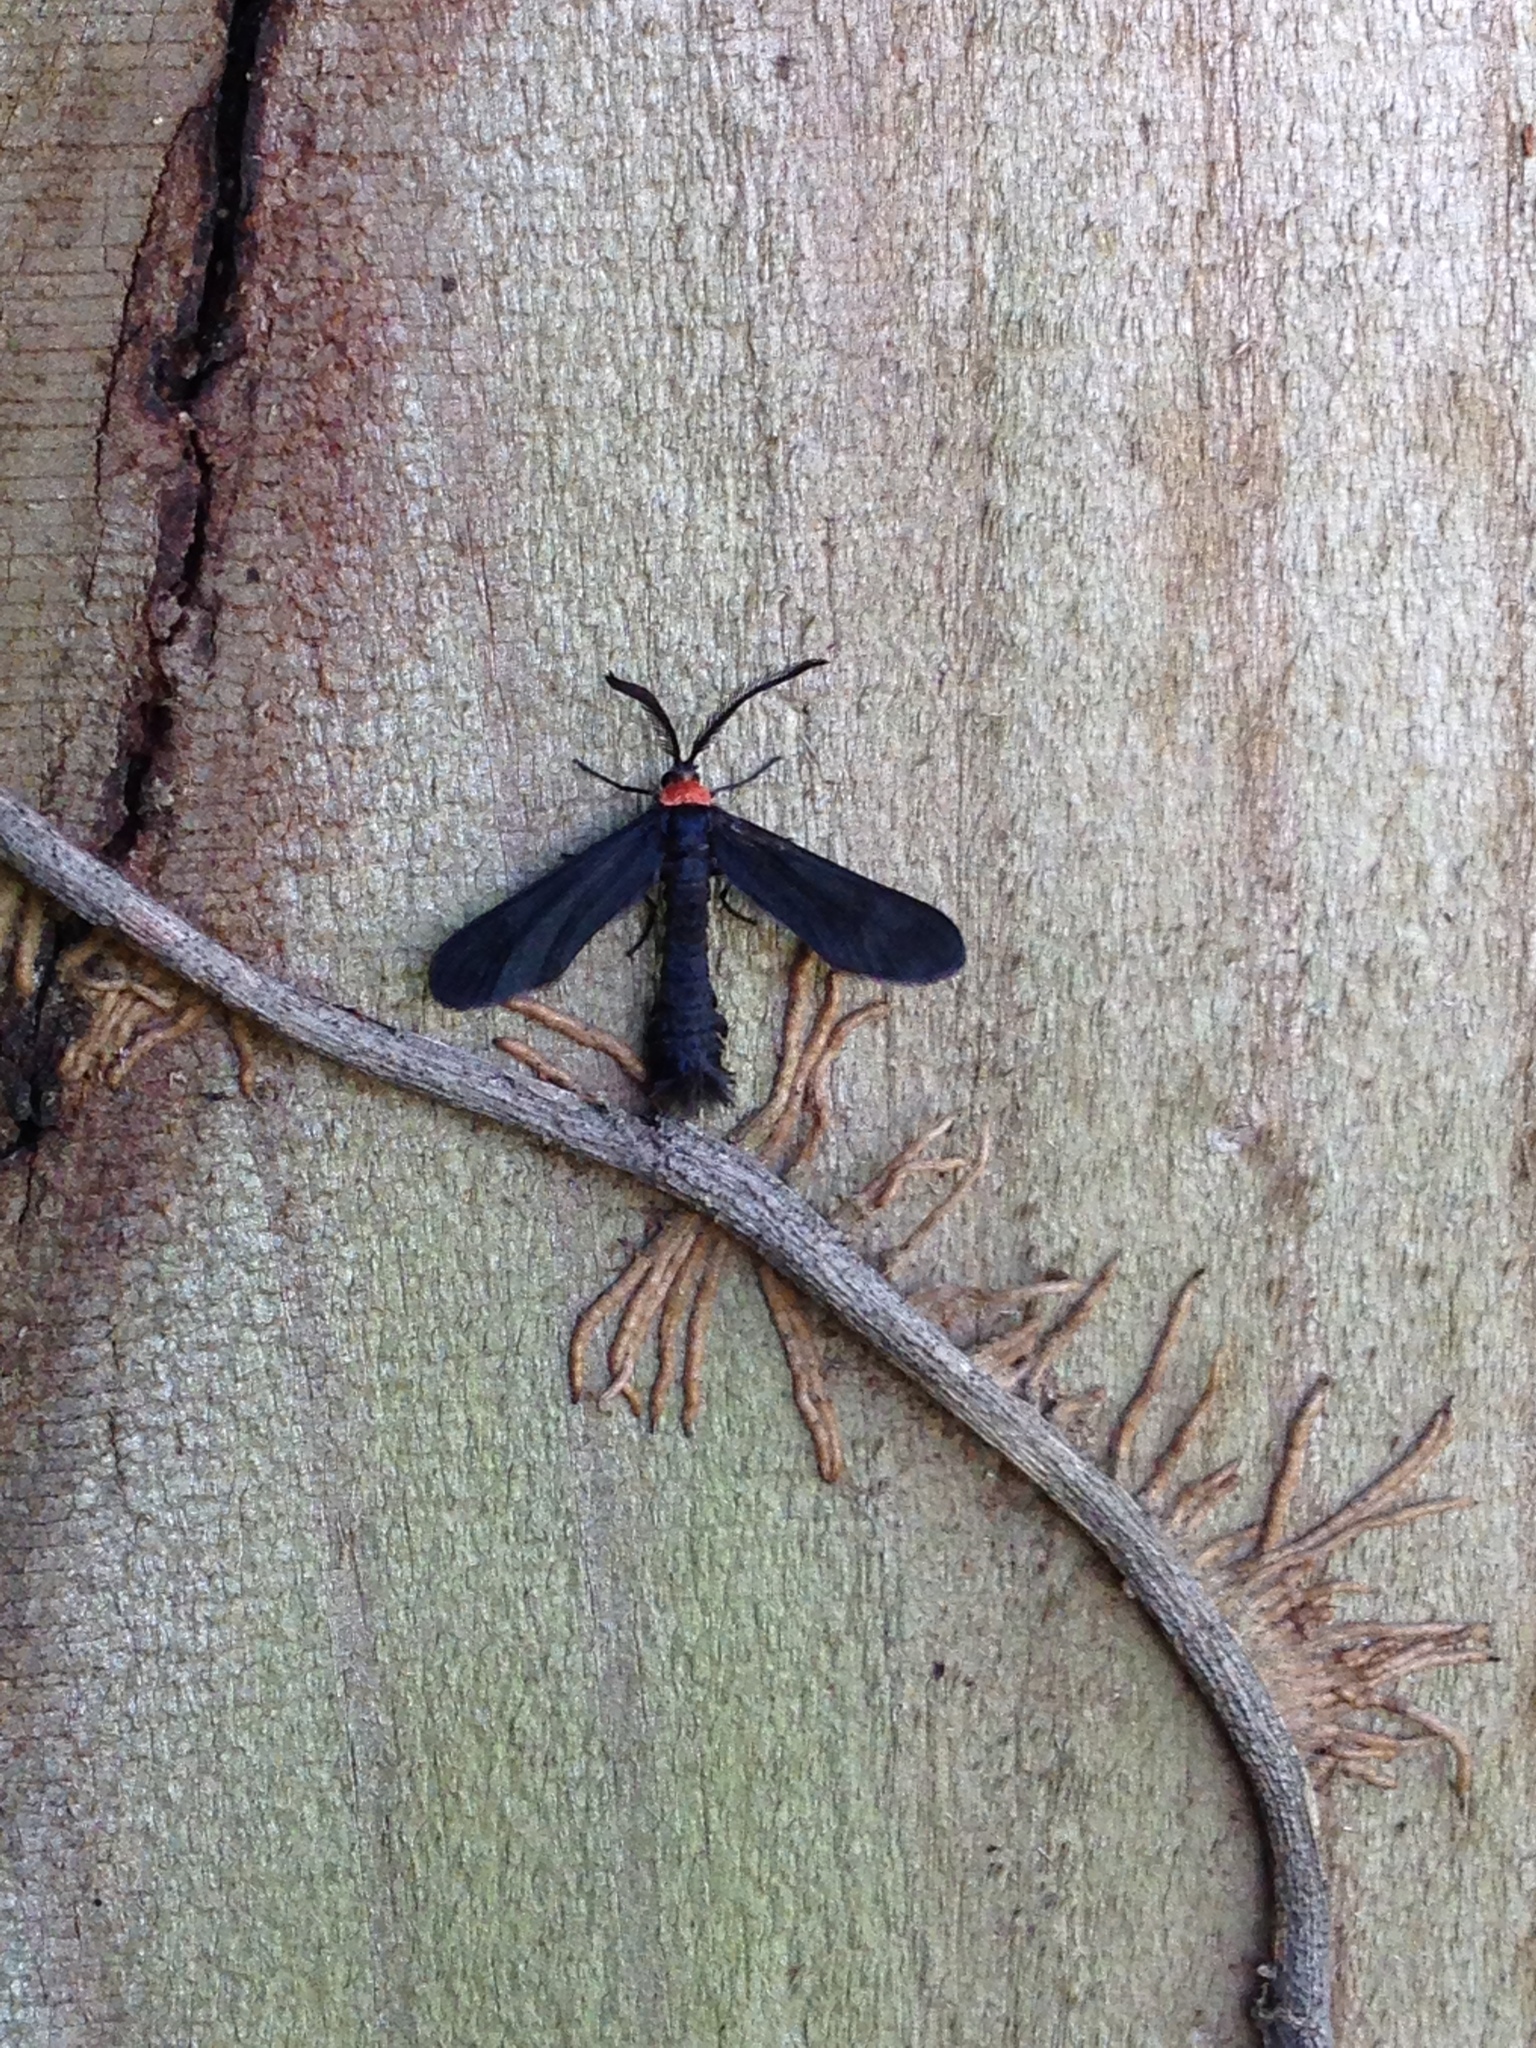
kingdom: Animalia
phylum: Arthropoda
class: Insecta
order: Lepidoptera
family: Zygaenidae
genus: Harrisina
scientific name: Harrisina americana
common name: Grapeleaf skeletonizer moth
